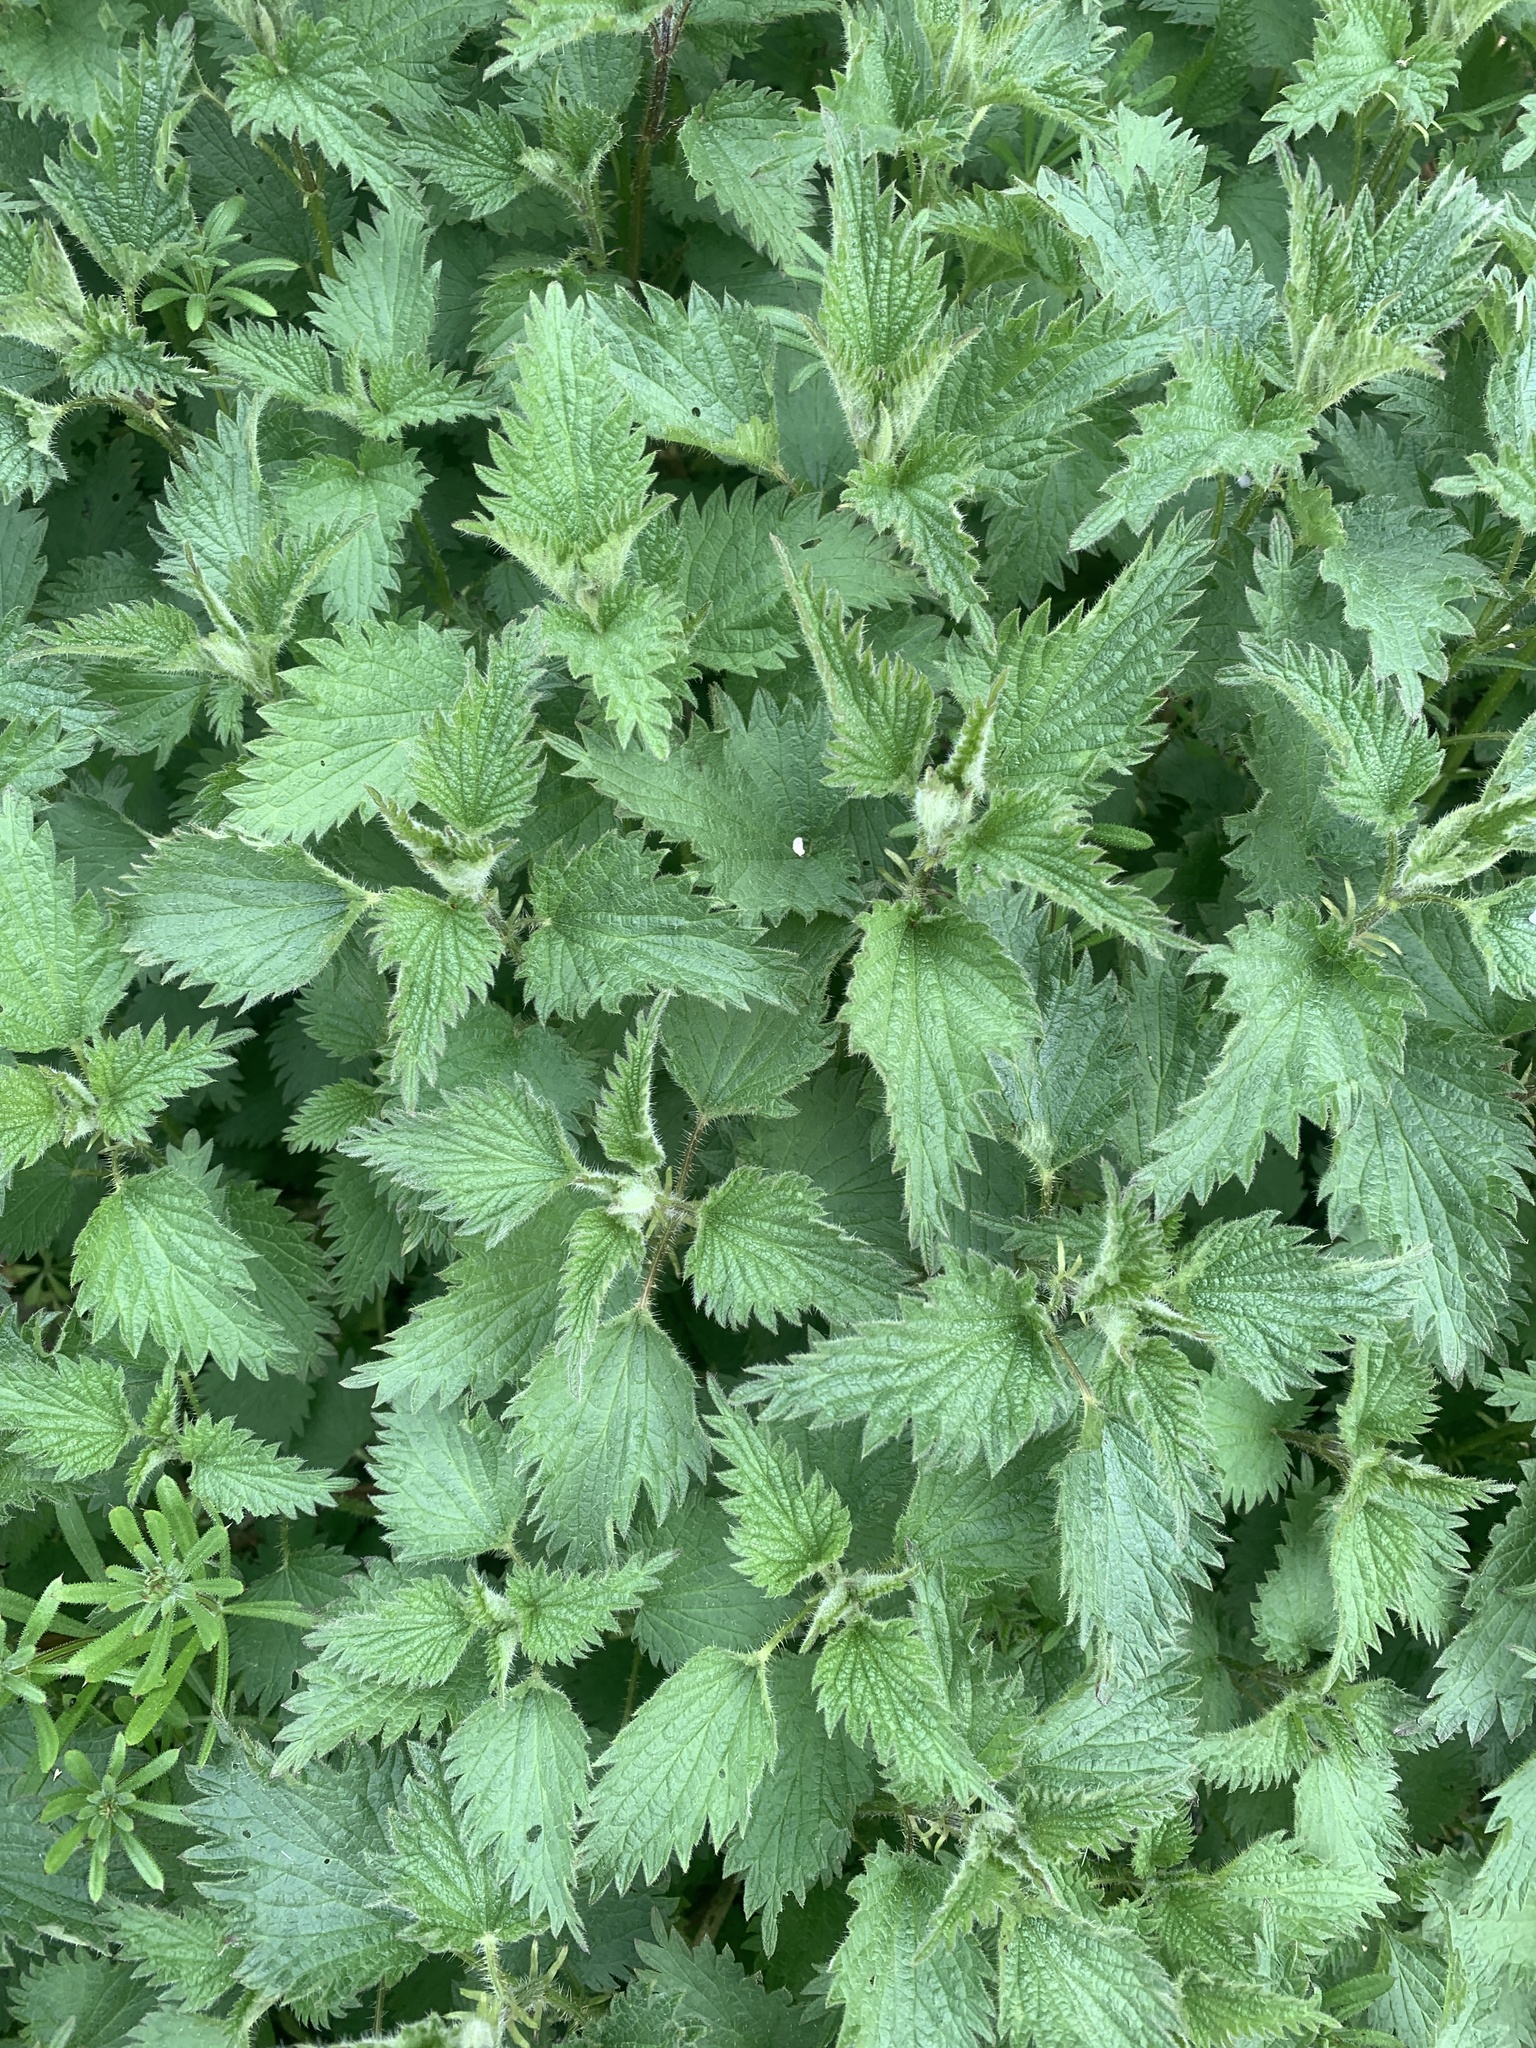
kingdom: Plantae
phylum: Tracheophyta
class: Magnoliopsida
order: Rosales
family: Urticaceae
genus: Urtica
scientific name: Urtica dioica
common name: Common nettle
